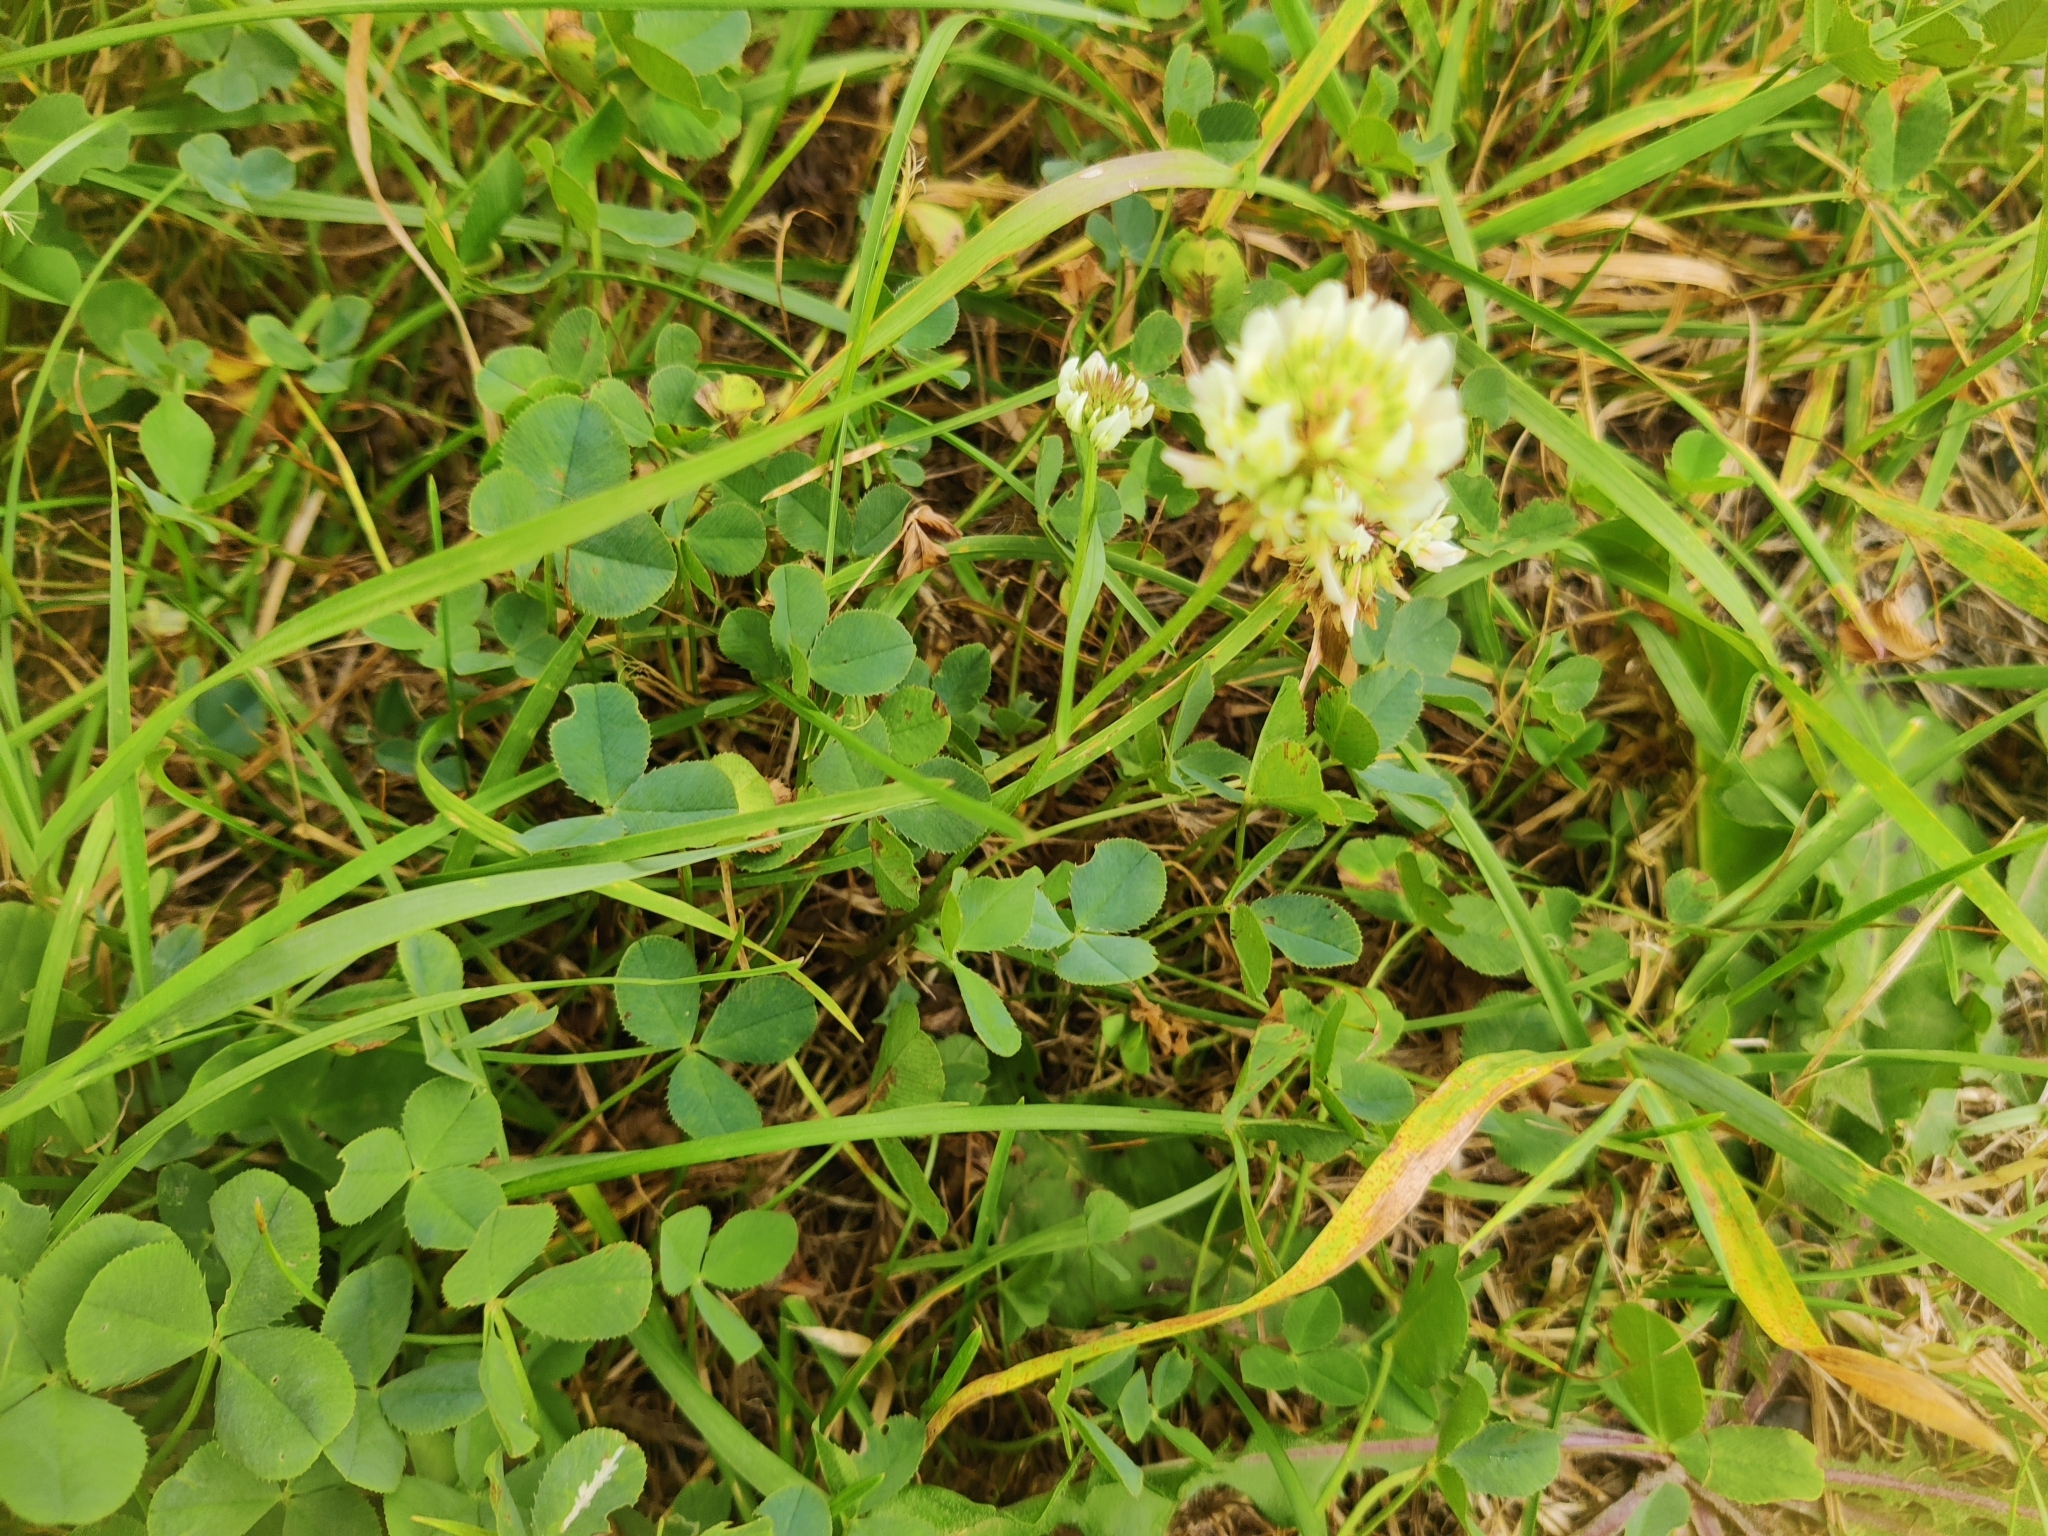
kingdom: Plantae
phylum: Tracheophyta
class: Magnoliopsida
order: Fabales
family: Fabaceae
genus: Trifolium
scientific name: Trifolium repens
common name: White clover
